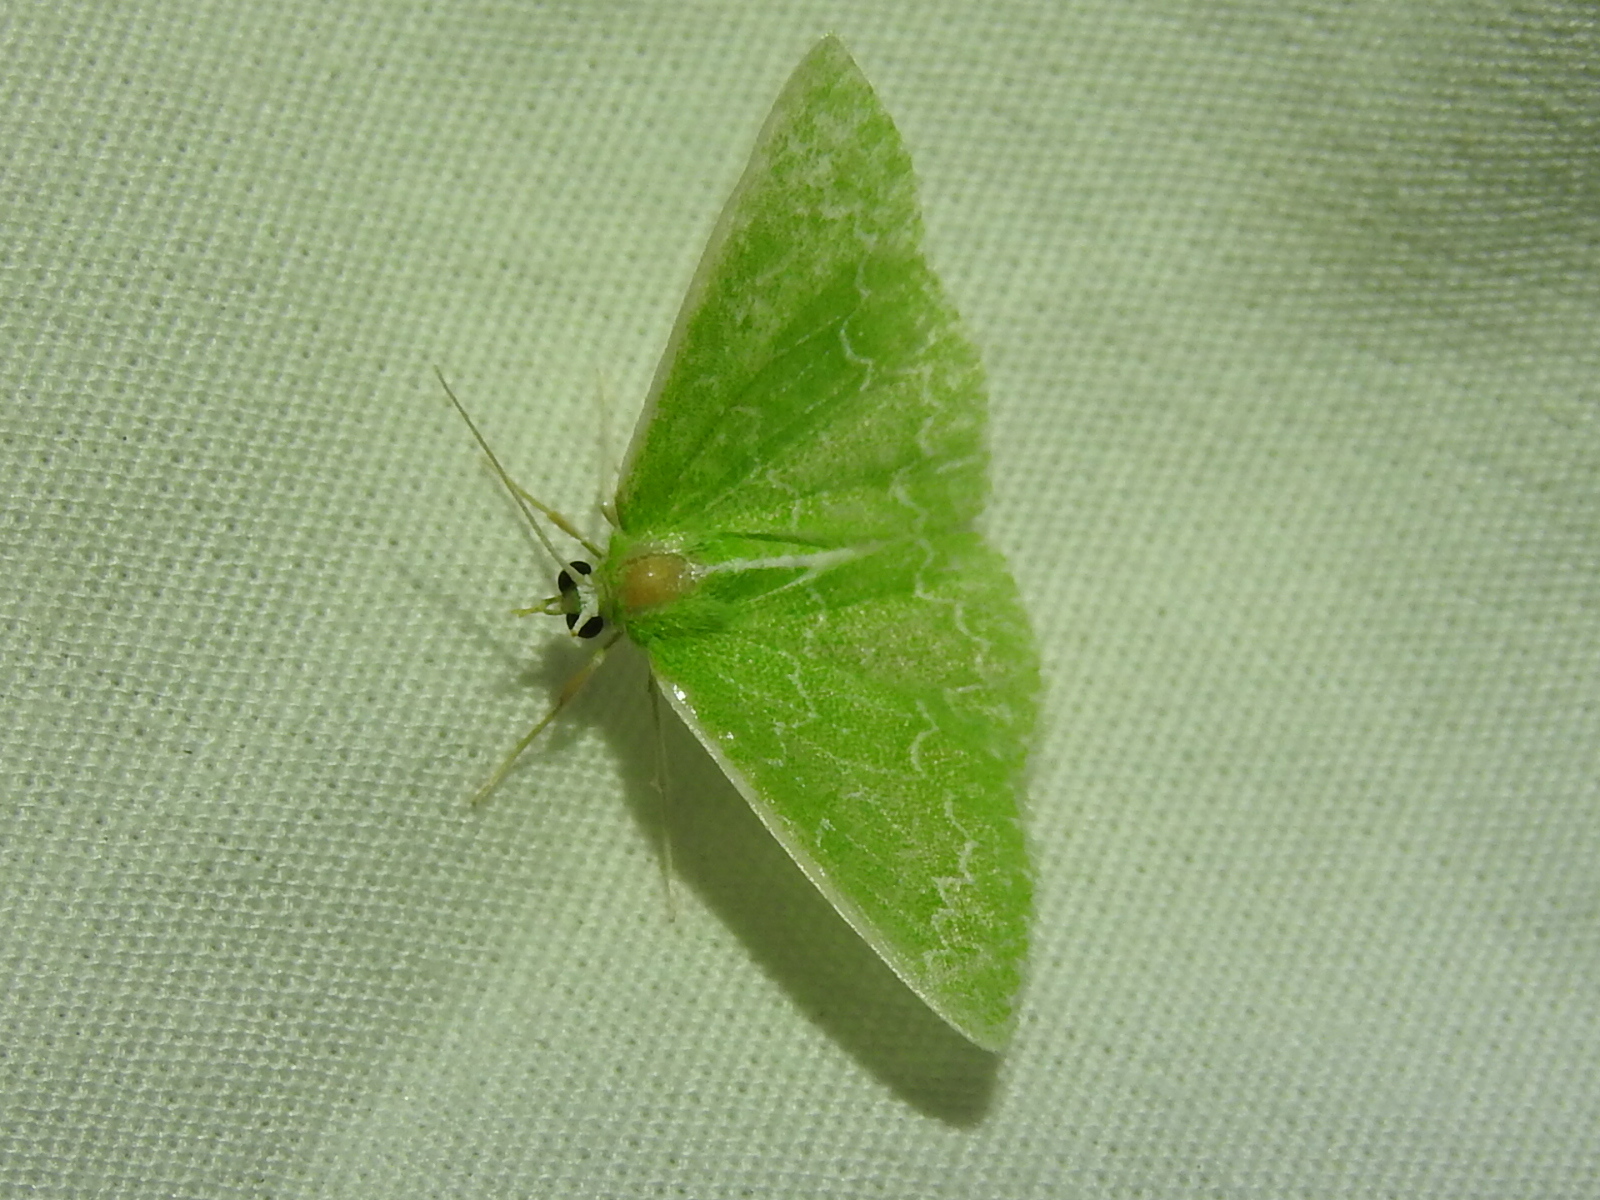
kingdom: Animalia
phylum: Arthropoda
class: Insecta
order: Lepidoptera
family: Geometridae
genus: Synchlora
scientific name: Synchlora frondaria
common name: Southern emerald
